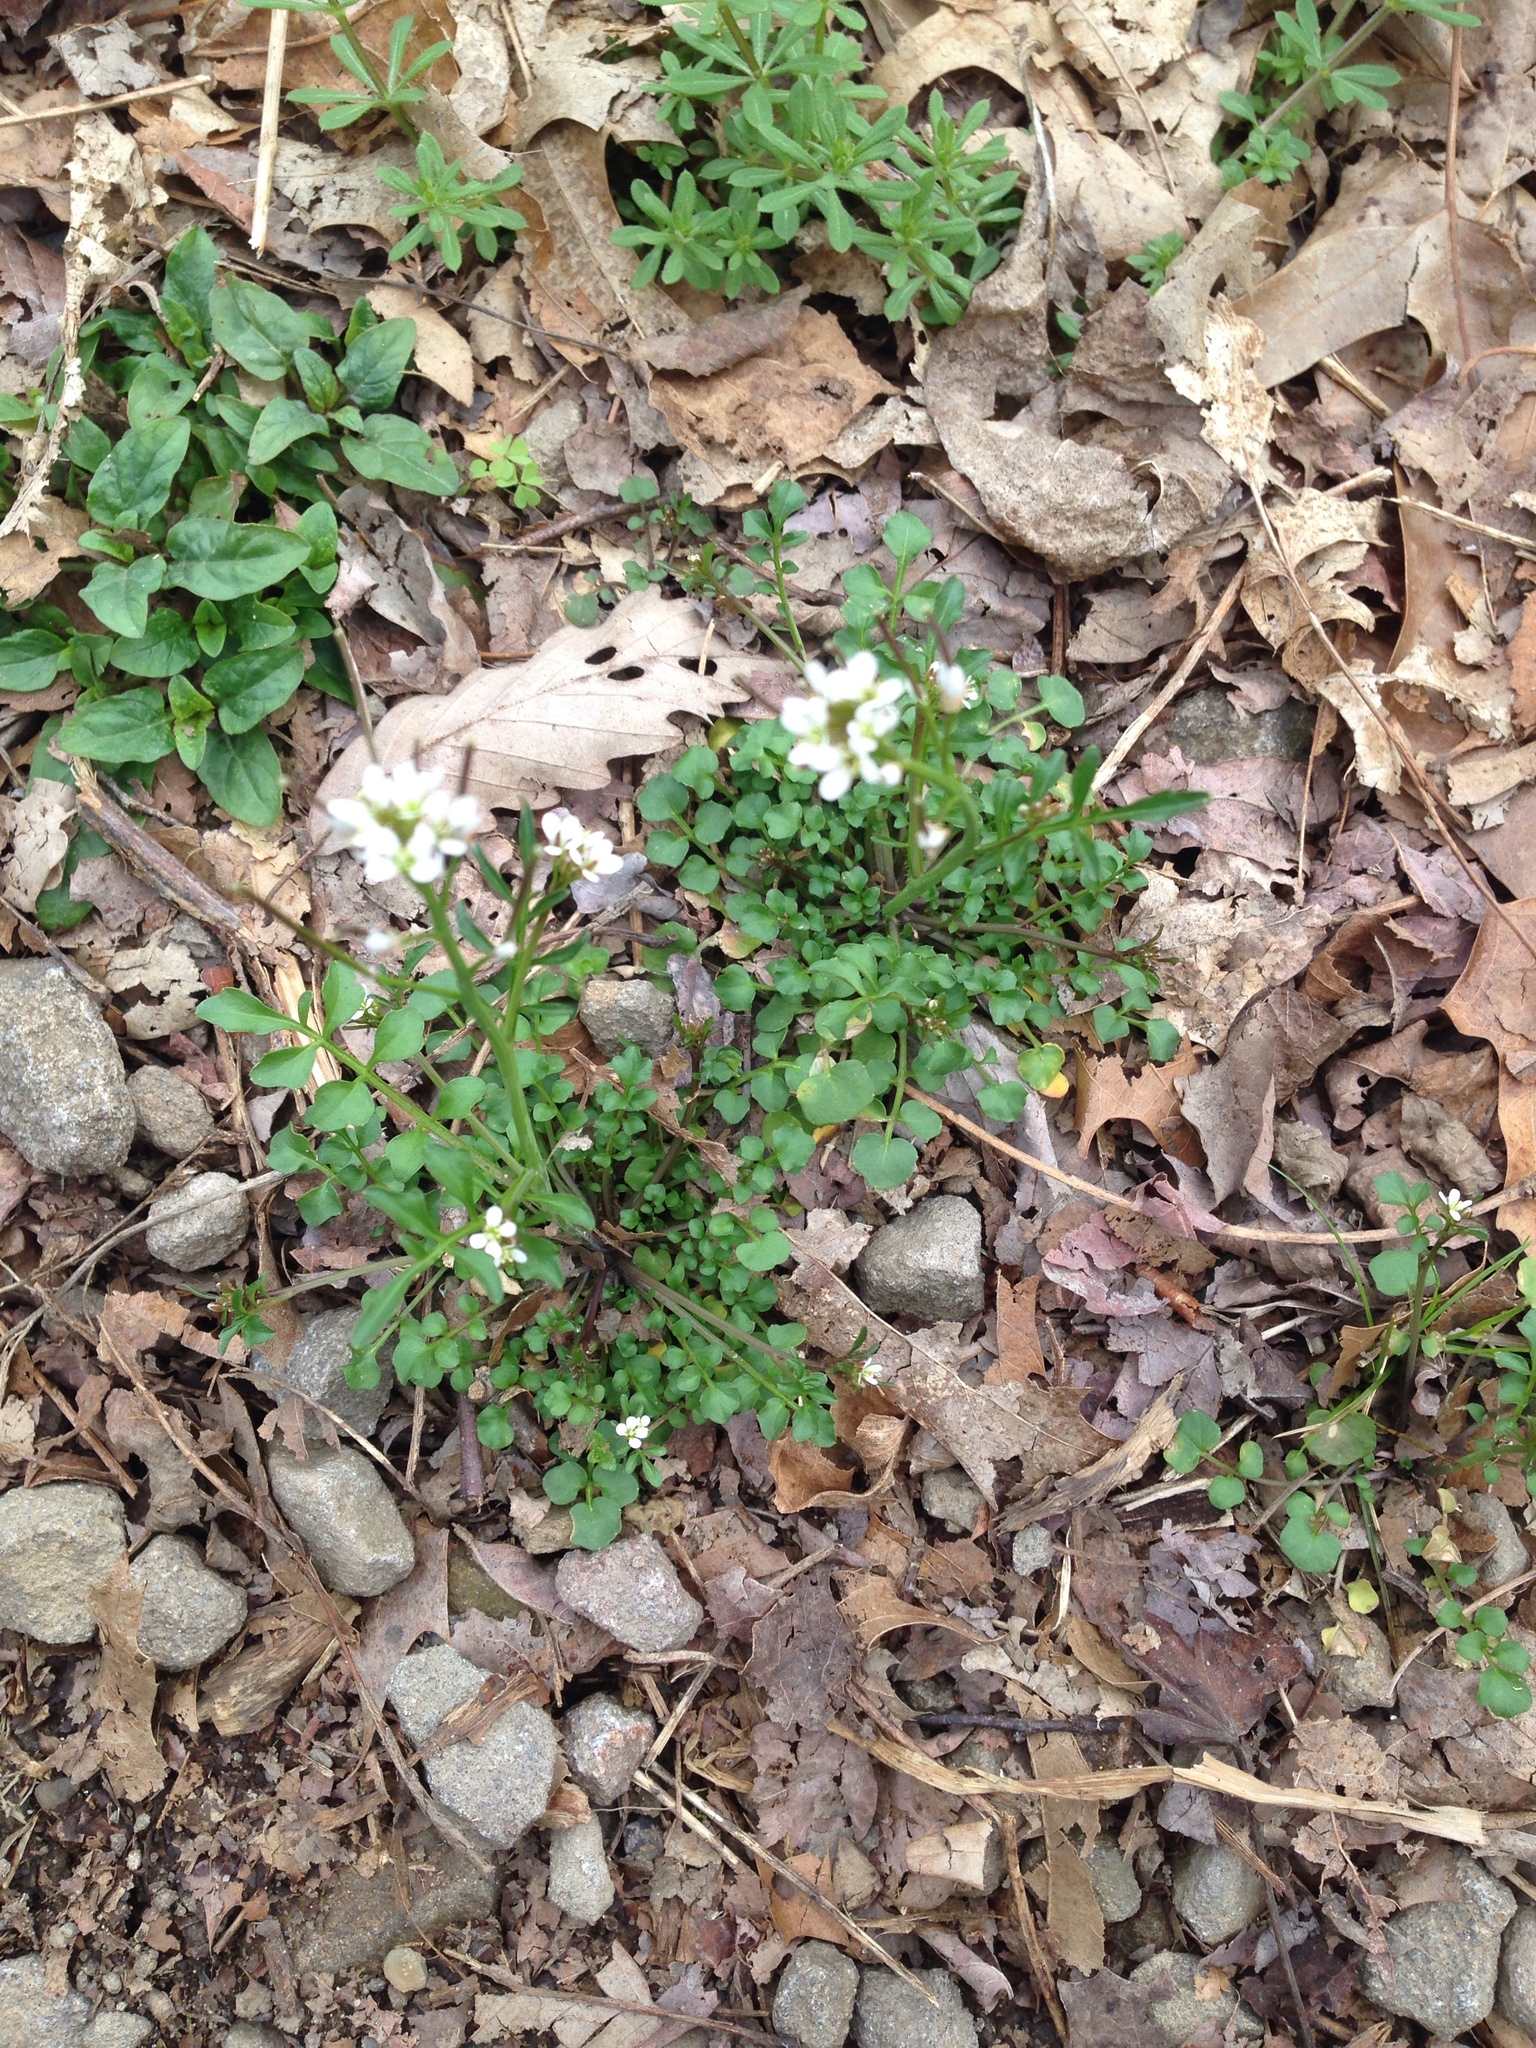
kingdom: Plantae
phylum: Tracheophyta
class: Magnoliopsida
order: Brassicales
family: Brassicaceae
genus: Cardamine
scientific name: Cardamine hirsuta
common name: Hairy bittercress
